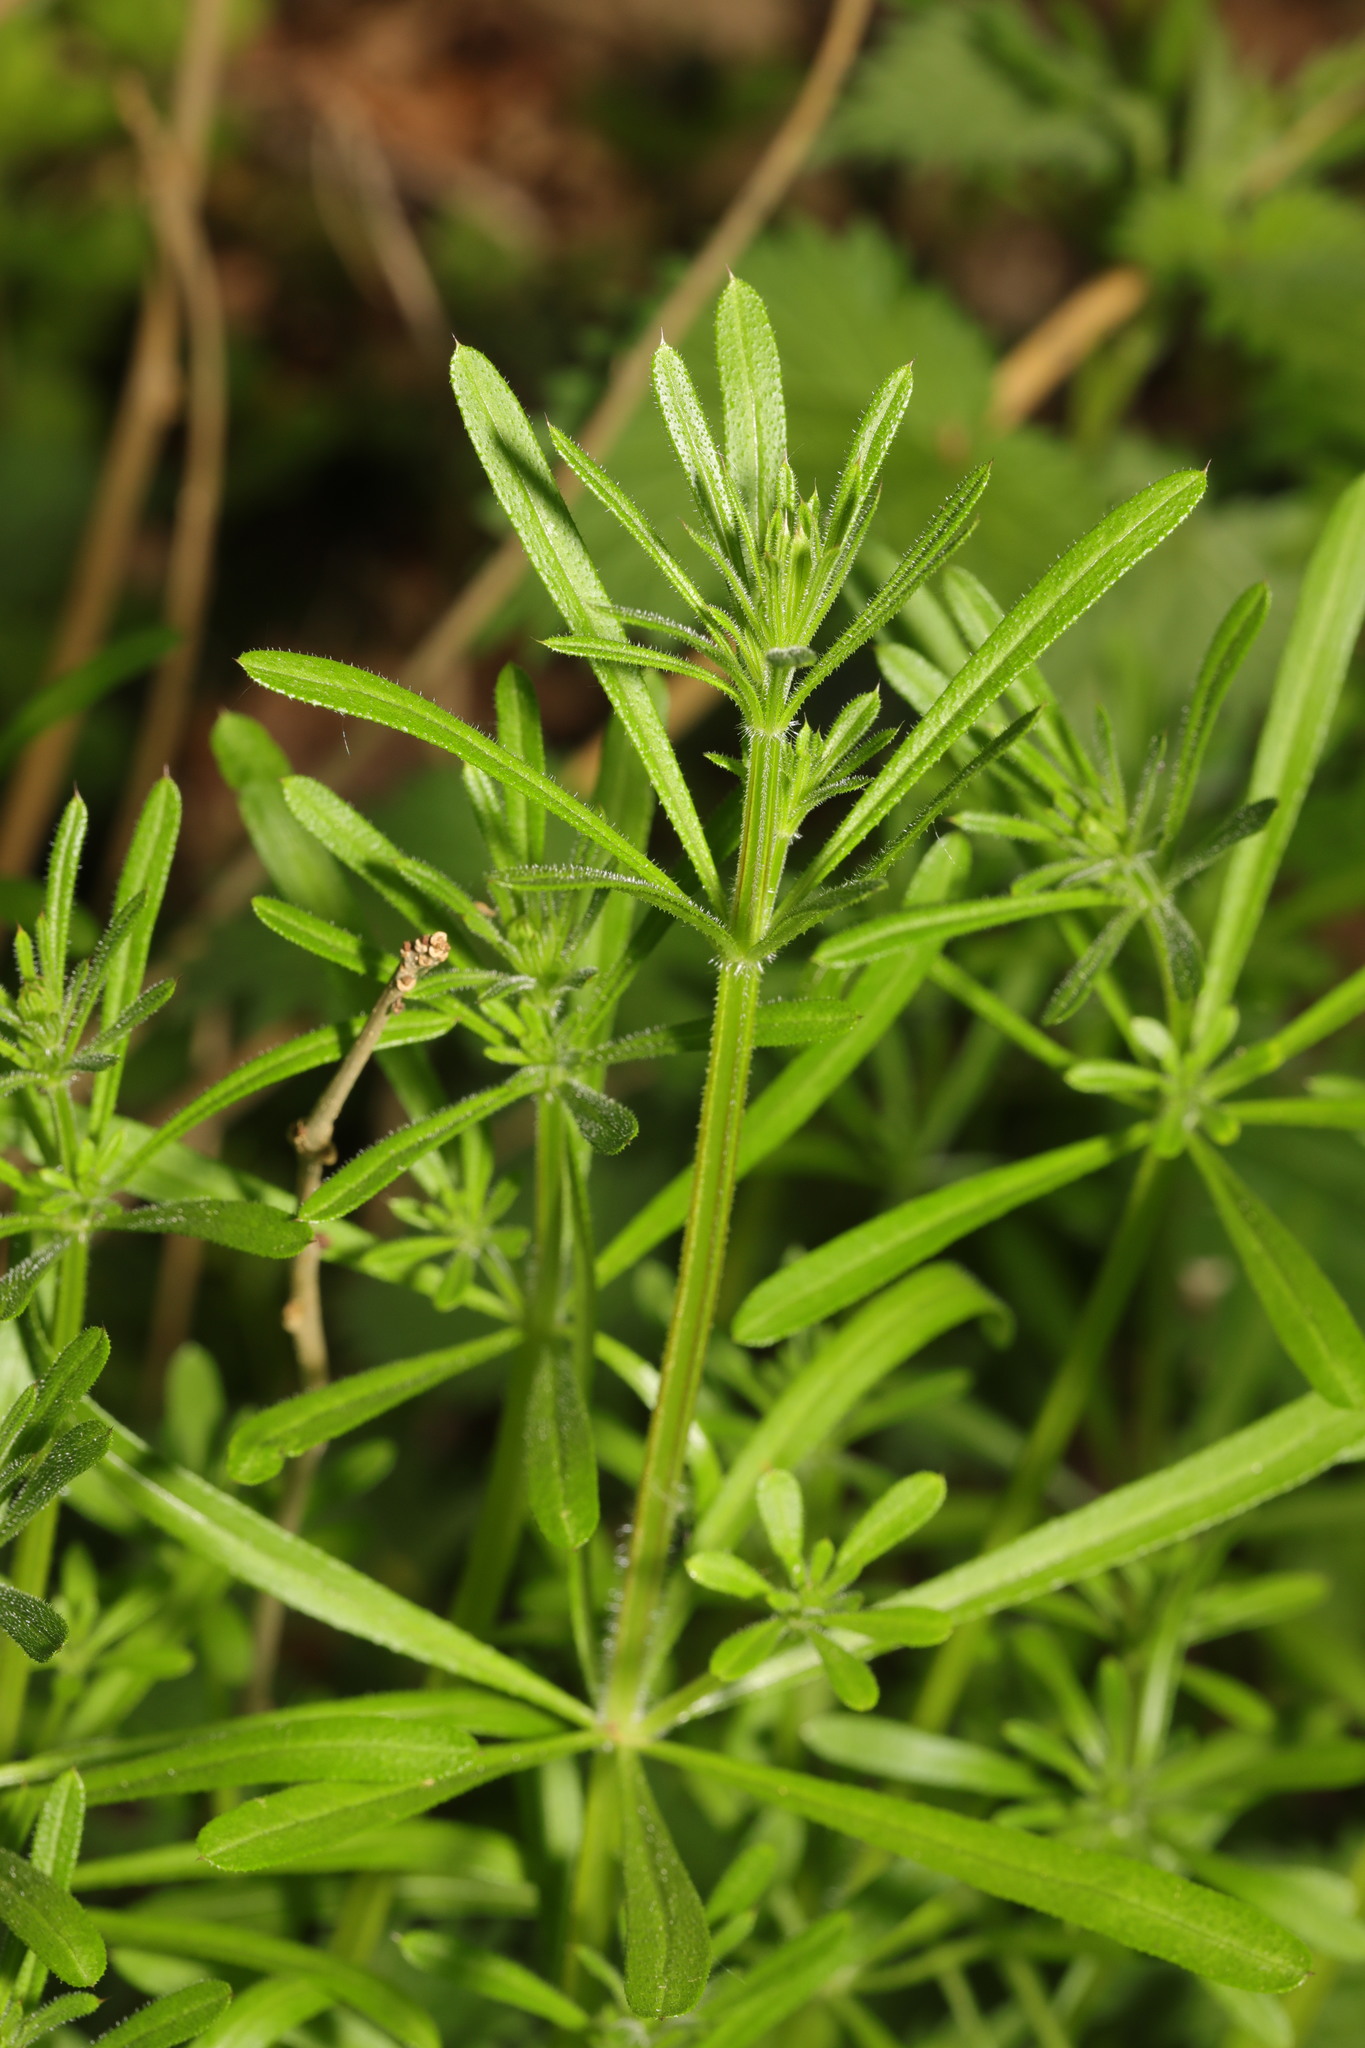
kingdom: Plantae
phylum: Tracheophyta
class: Magnoliopsida
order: Gentianales
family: Rubiaceae
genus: Galium
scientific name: Galium aparine
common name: Cleavers
